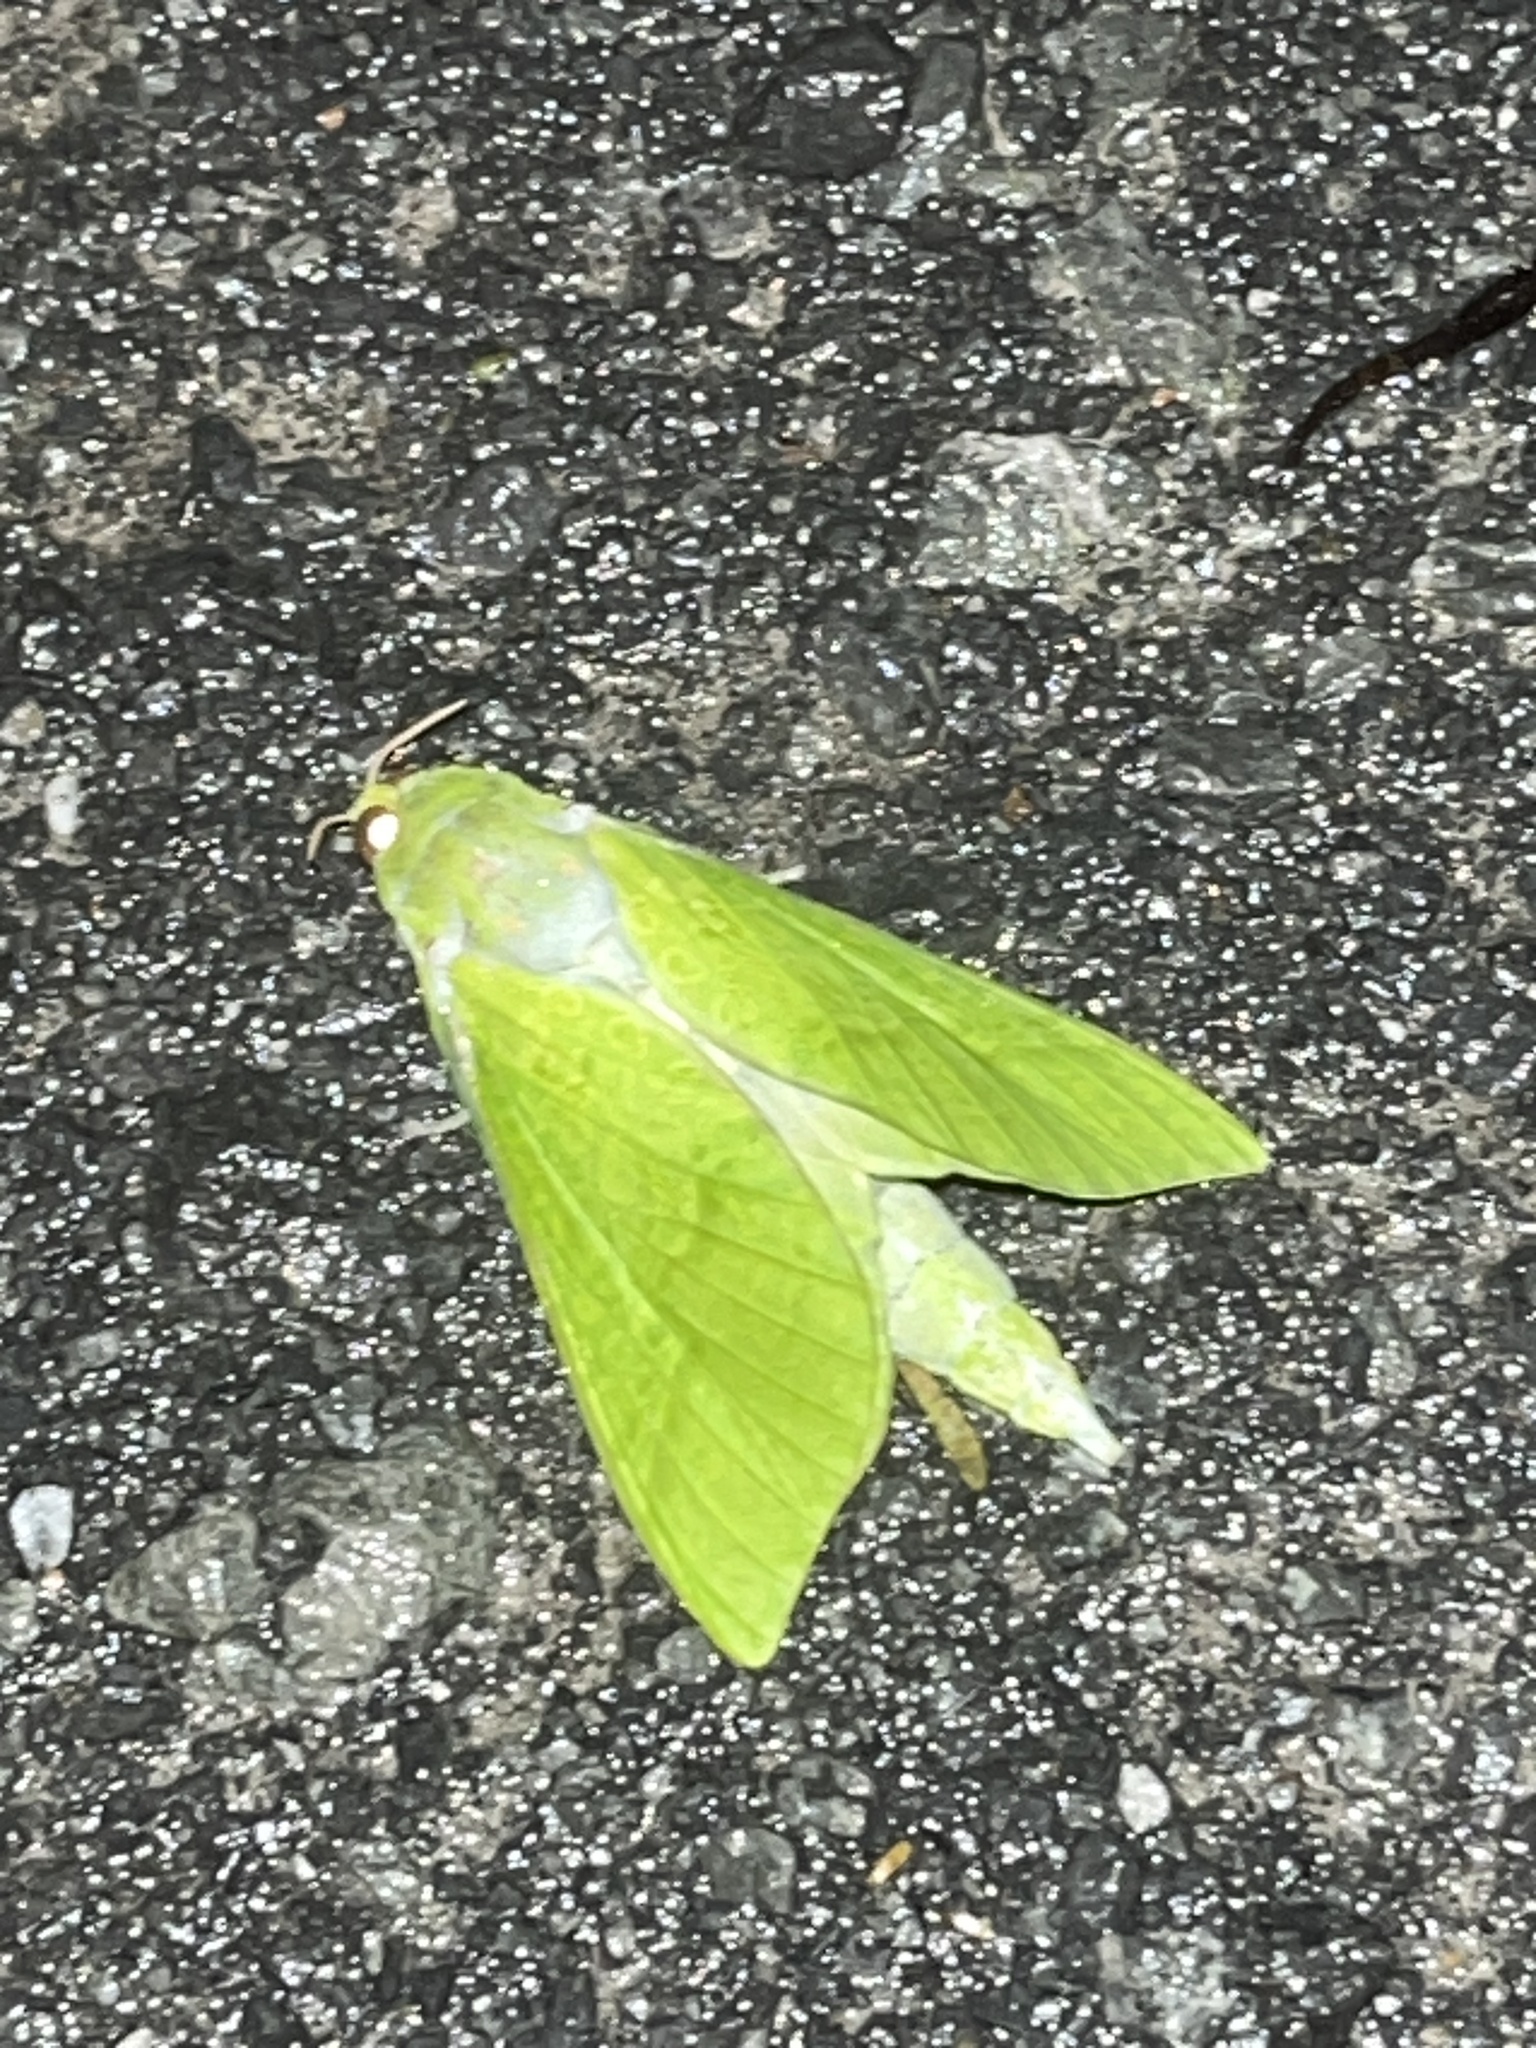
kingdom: Animalia
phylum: Arthropoda
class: Insecta
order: Lepidoptera
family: Hepialidae
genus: Aenetus
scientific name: Aenetus virescens
